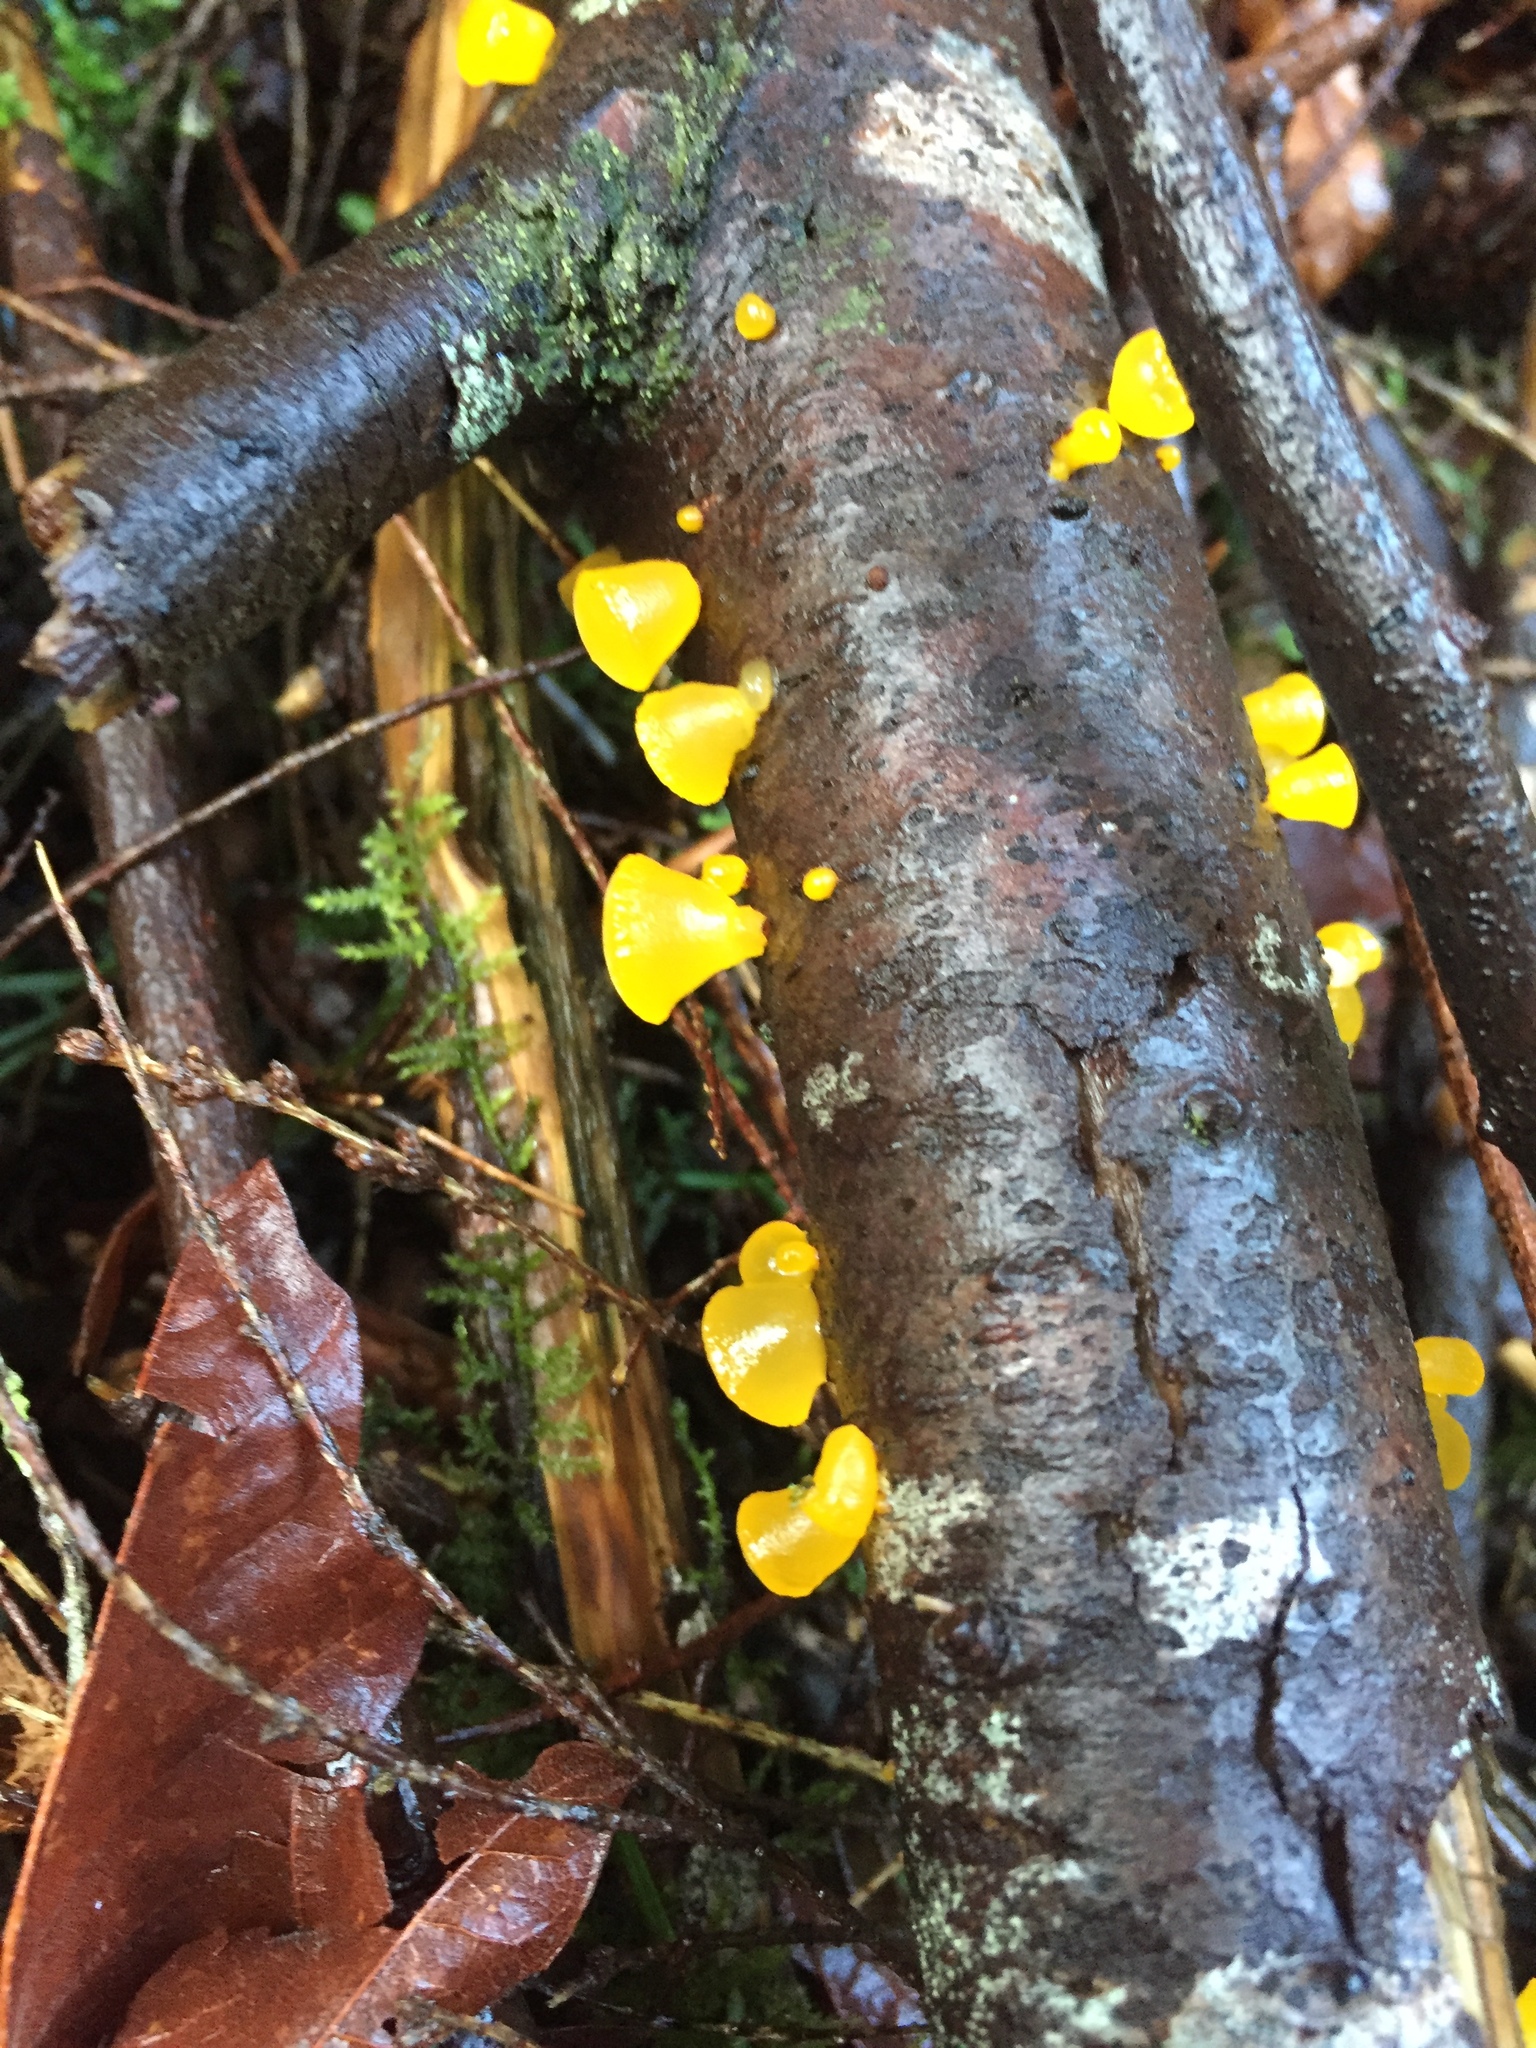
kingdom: Fungi
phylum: Basidiomycota
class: Dacrymycetes
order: Dacrymycetales
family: Dacrymycetaceae
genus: Guepiniopsis
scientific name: Guepiniopsis alpina
